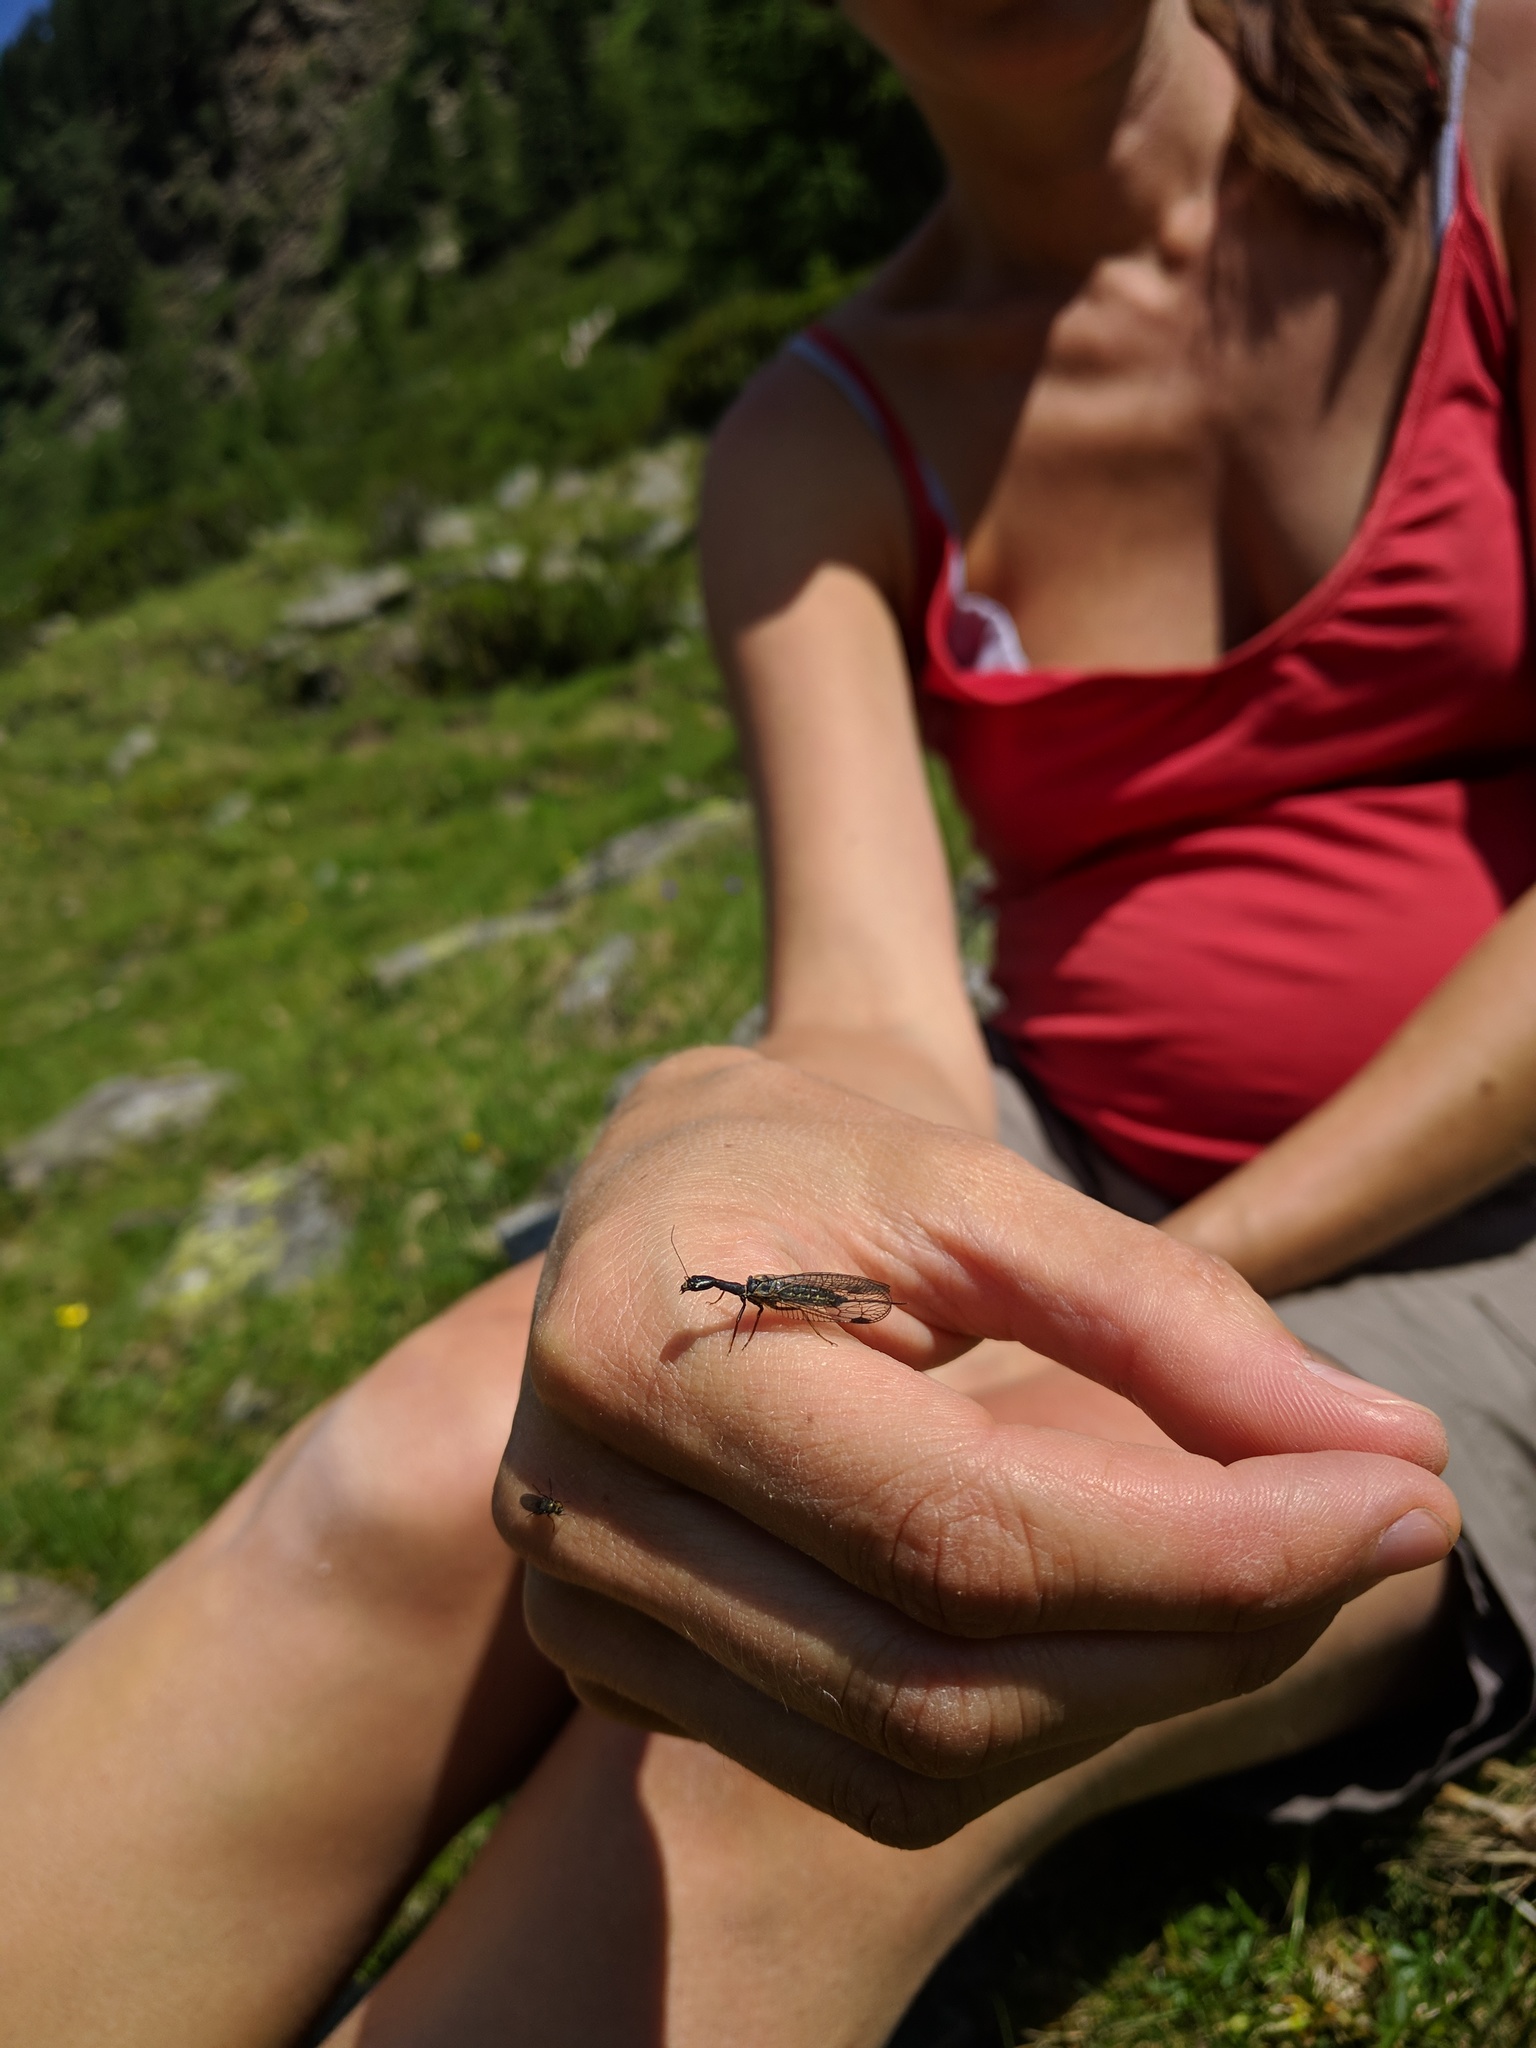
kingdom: Animalia
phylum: Arthropoda
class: Insecta
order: Raphidioptera
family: Raphidiidae
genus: Phaeostigma
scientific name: Phaeostigma notatum
